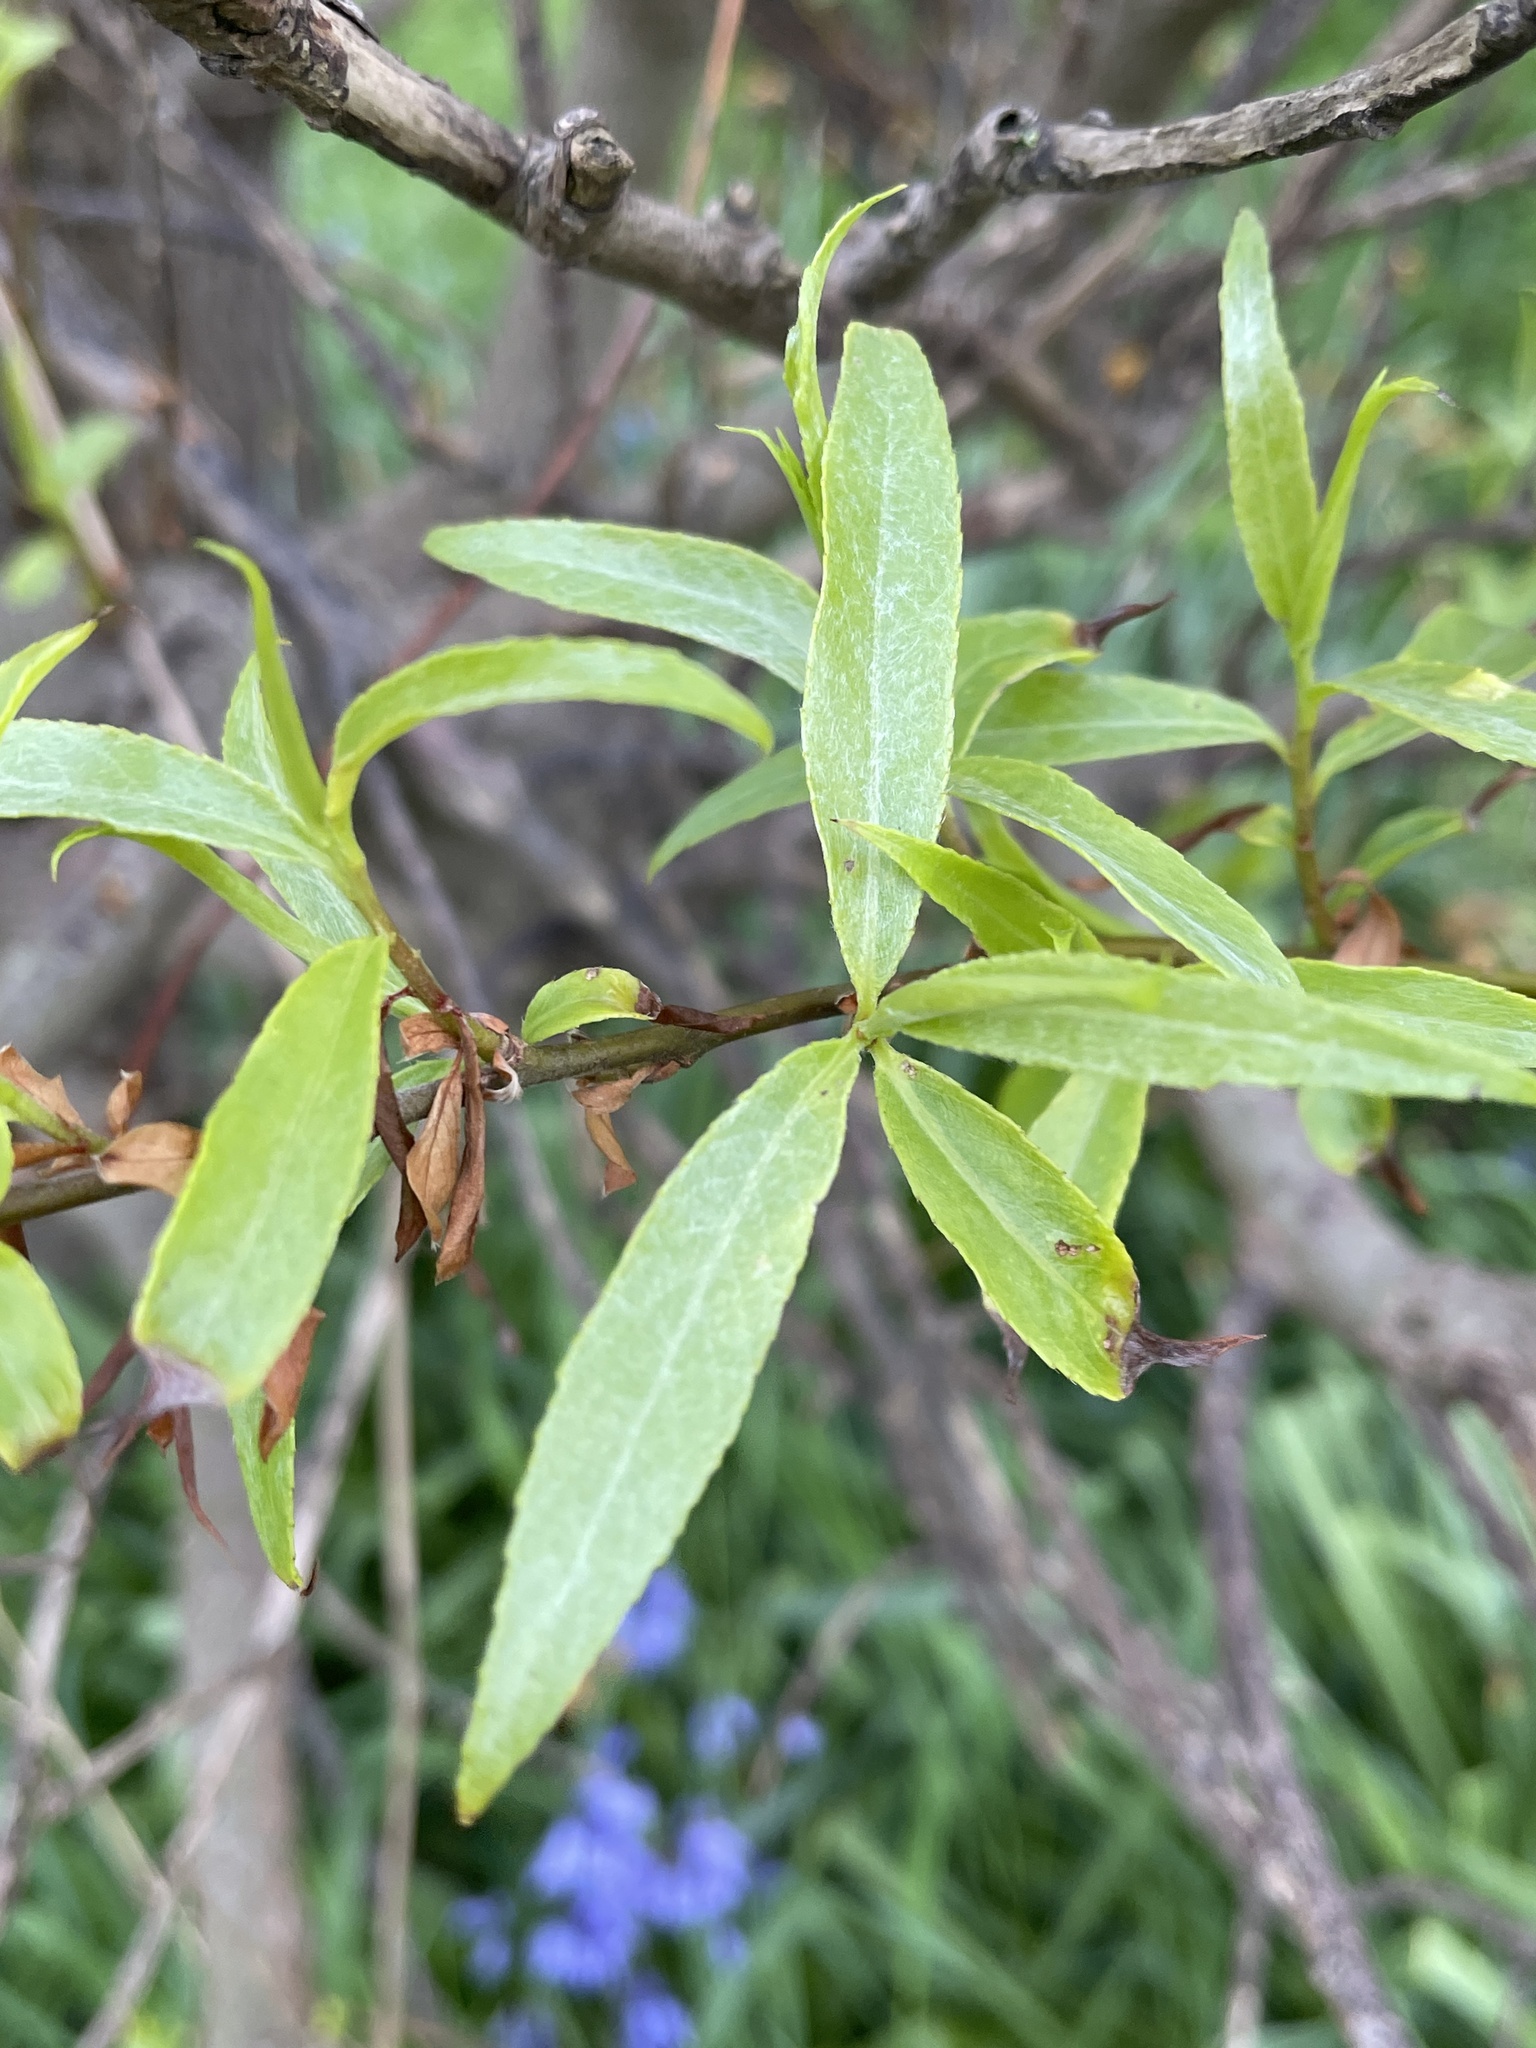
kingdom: Plantae
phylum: Tracheophyta
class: Magnoliopsida
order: Malpighiales
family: Salicaceae
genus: Salix
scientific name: Salix fragilis
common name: Crack willow
